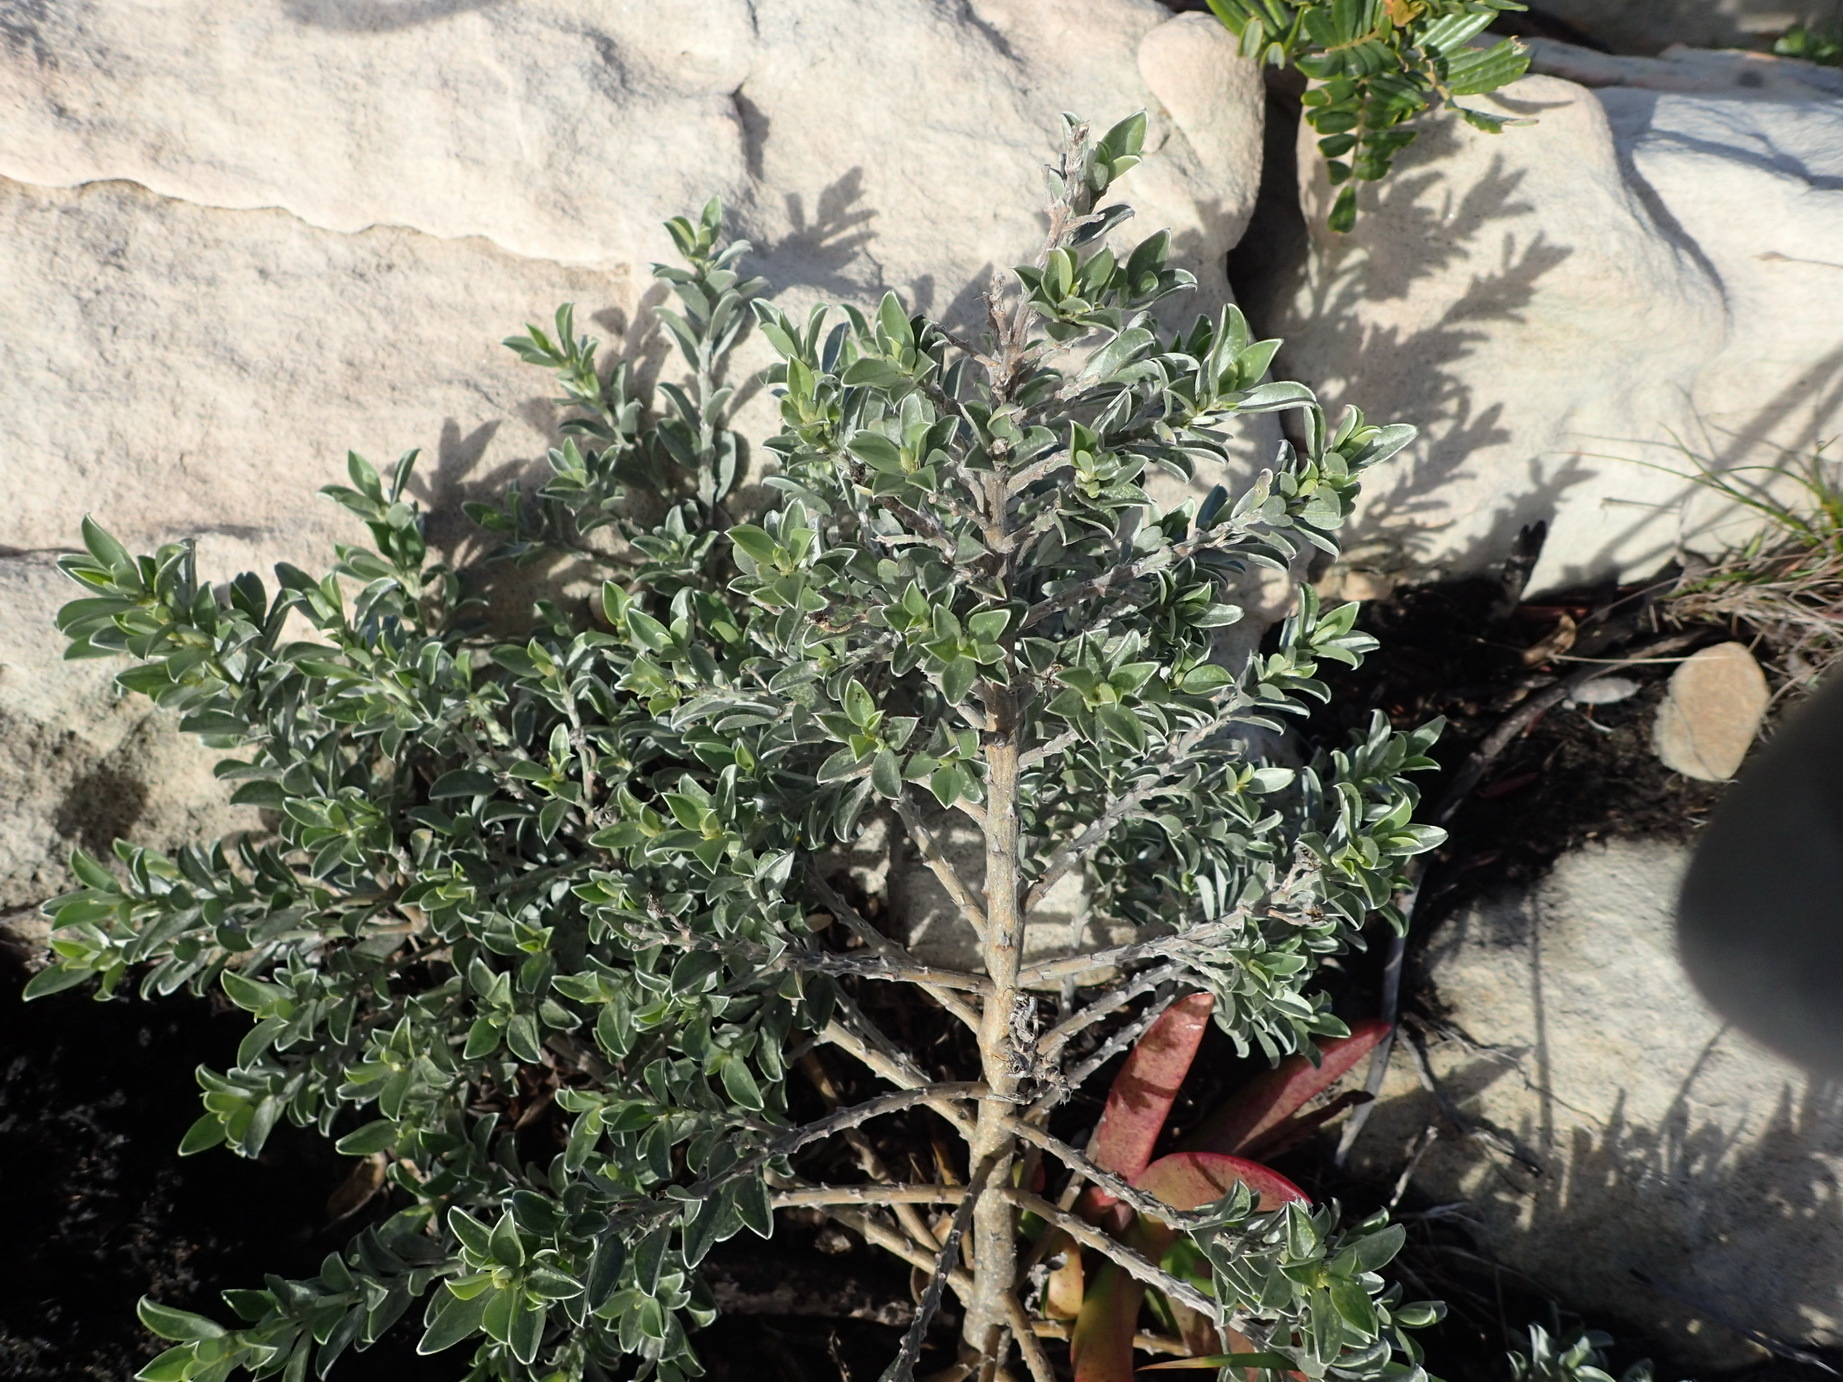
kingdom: Plantae
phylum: Tracheophyta
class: Magnoliopsida
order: Fabales
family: Fabaceae
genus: Podalyria
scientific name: Podalyria myrtillifolia
